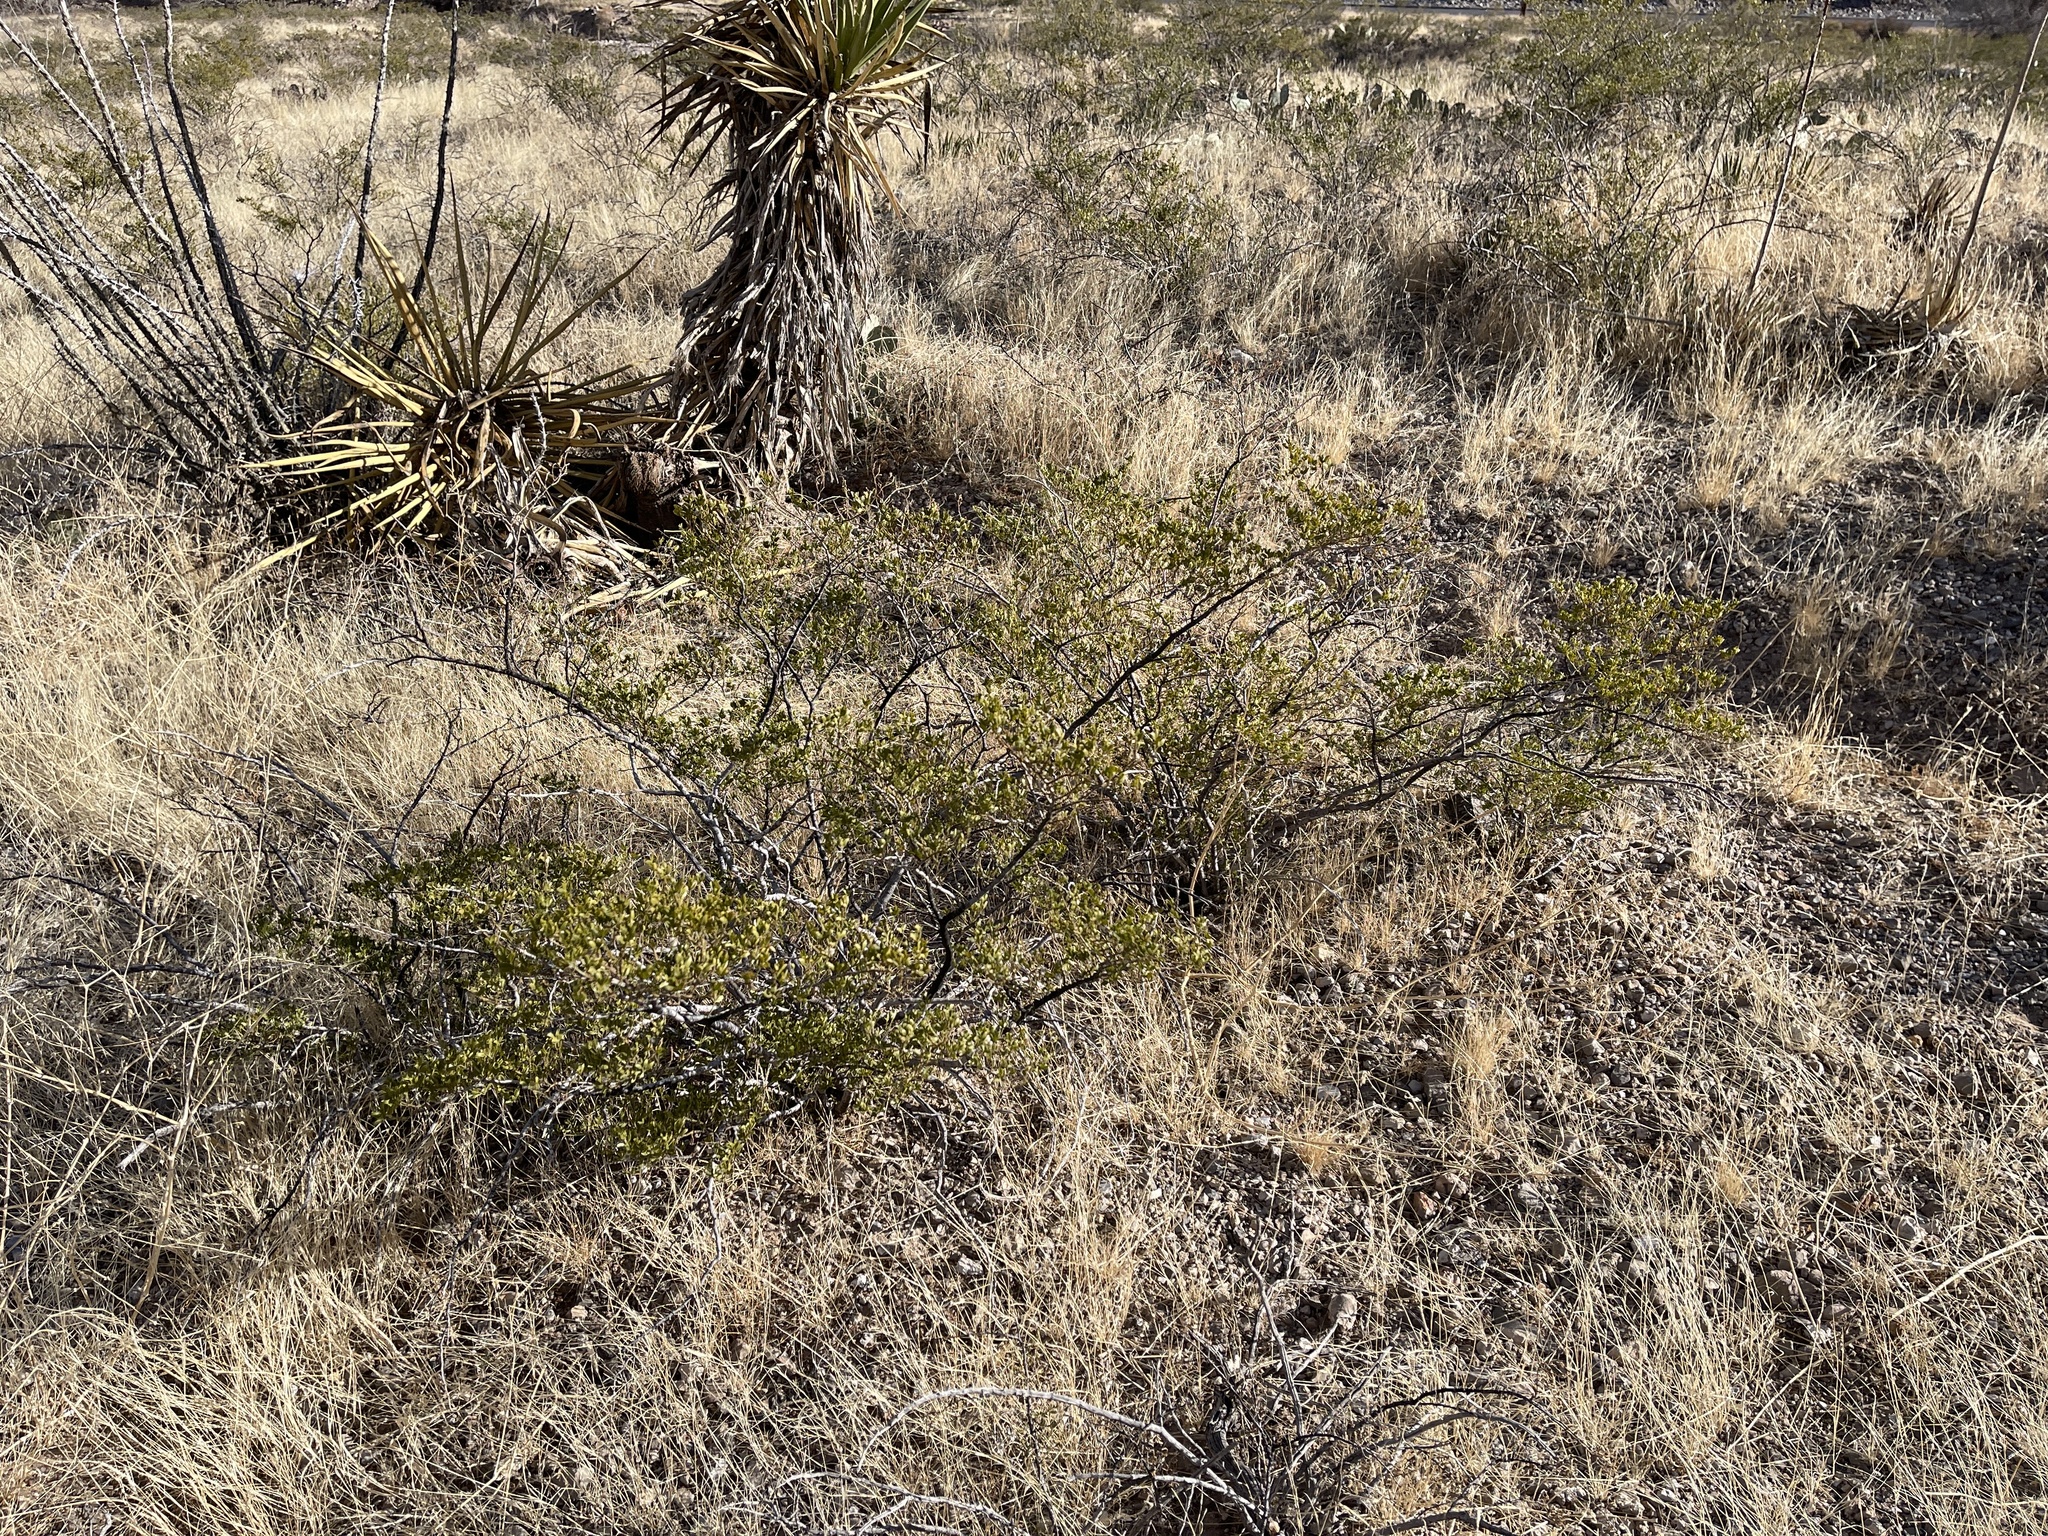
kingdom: Plantae
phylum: Tracheophyta
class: Magnoliopsida
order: Zygophyllales
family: Zygophyllaceae
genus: Larrea
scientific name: Larrea tridentata
